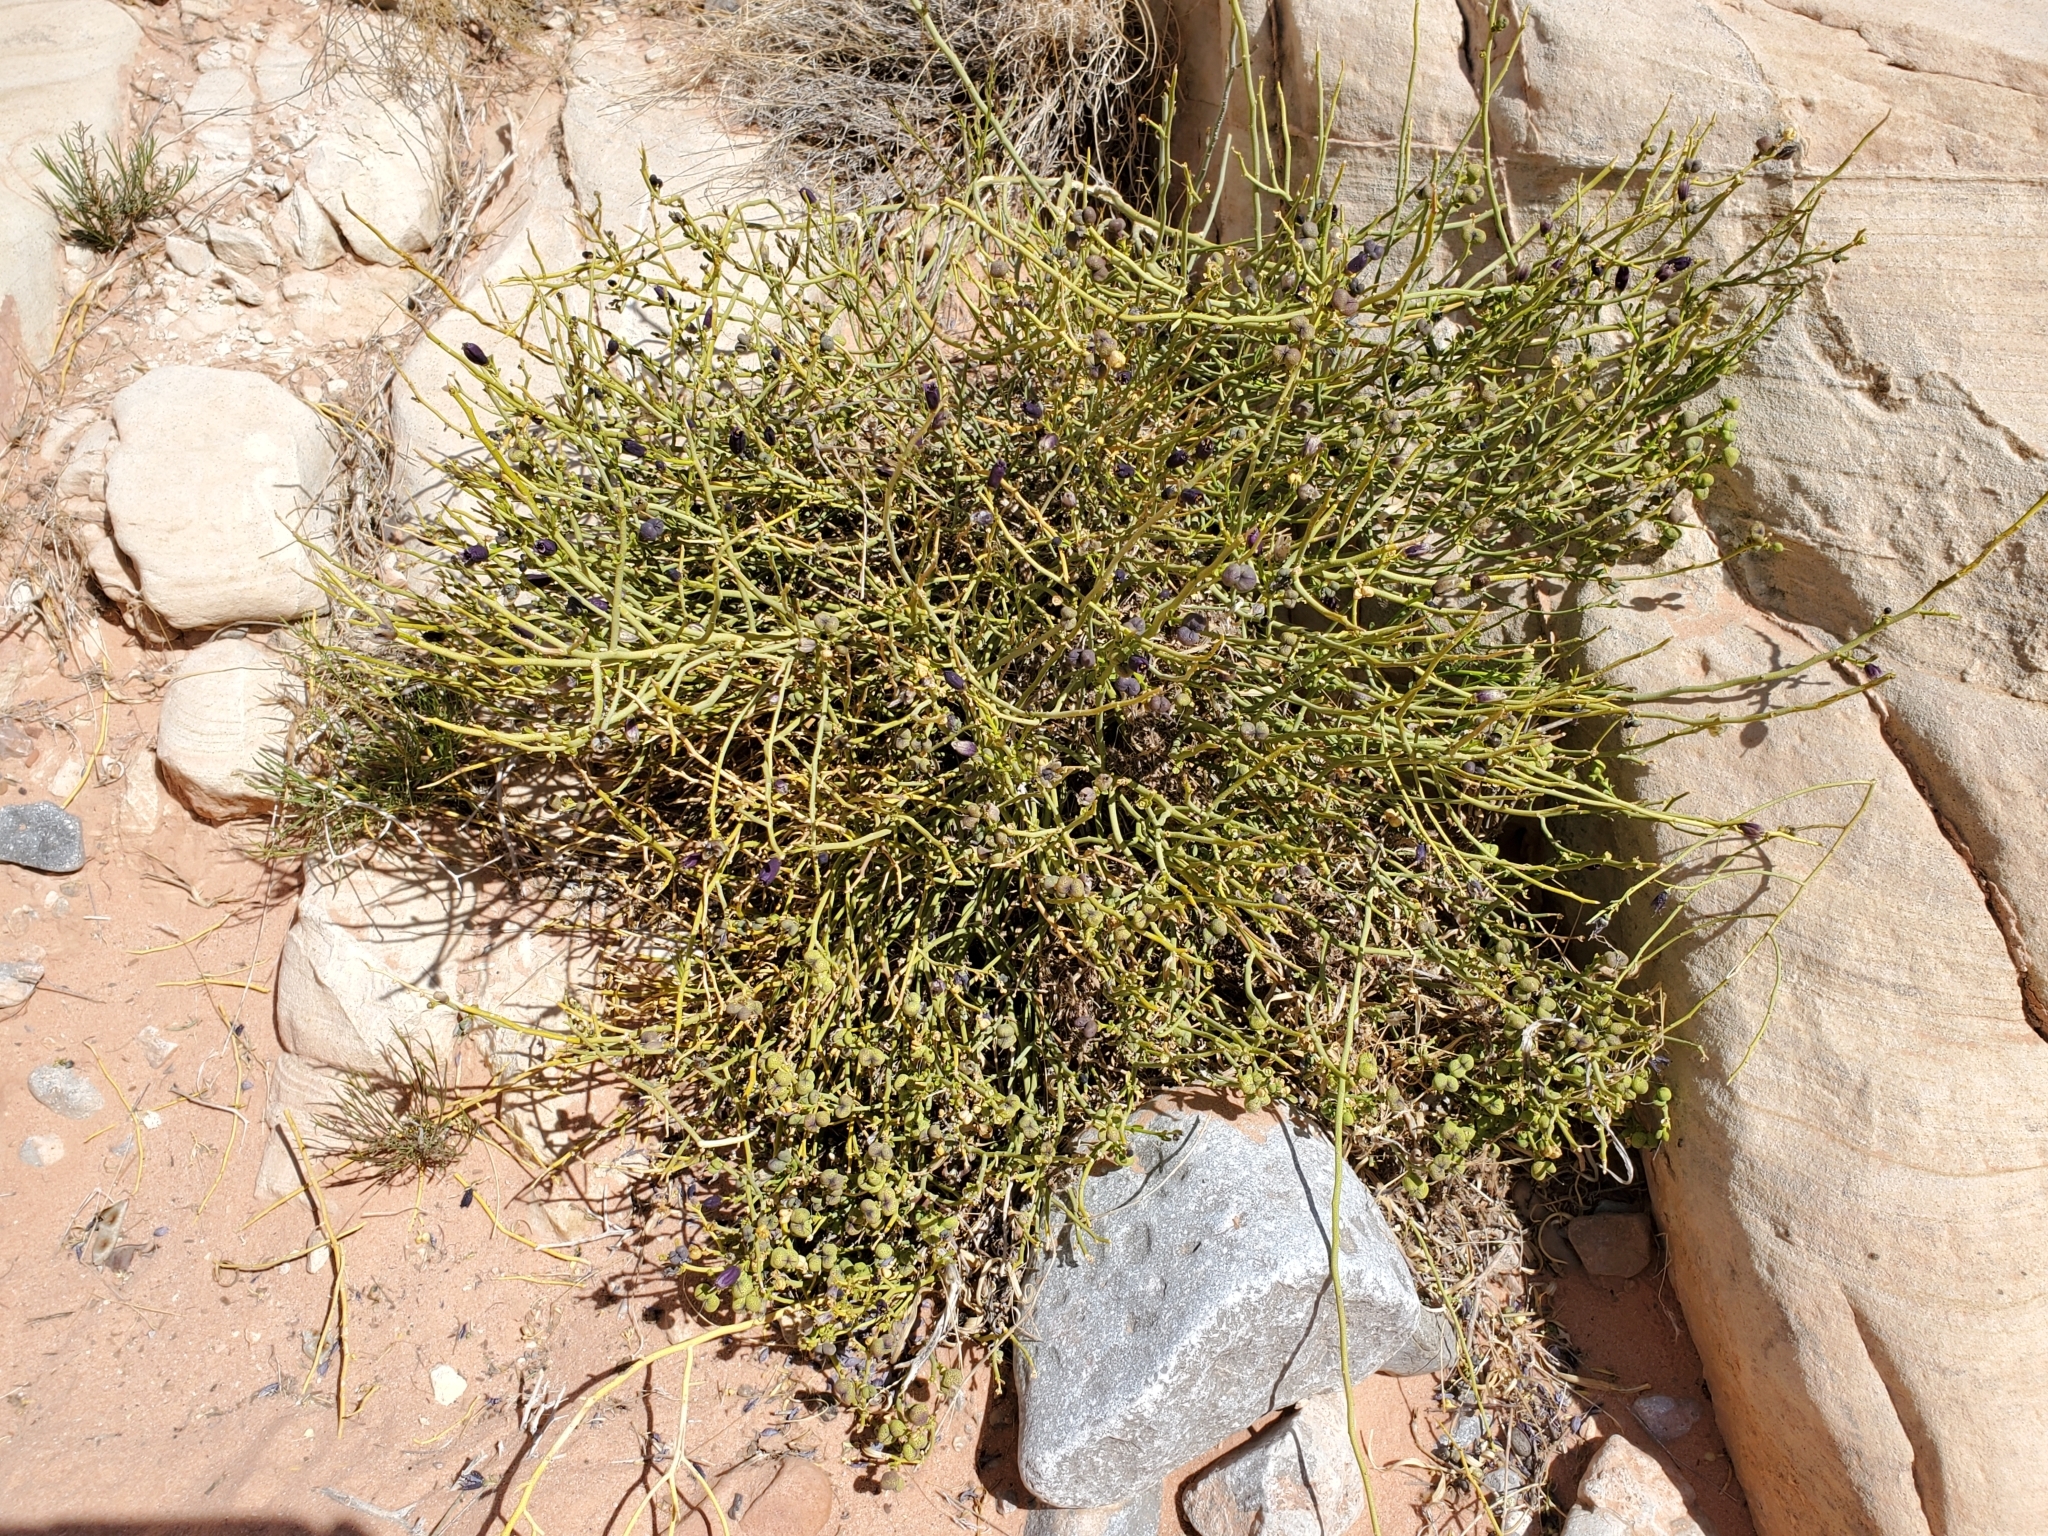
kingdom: Plantae
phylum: Tracheophyta
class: Magnoliopsida
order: Sapindales
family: Rutaceae
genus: Thamnosma
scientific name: Thamnosma montana
